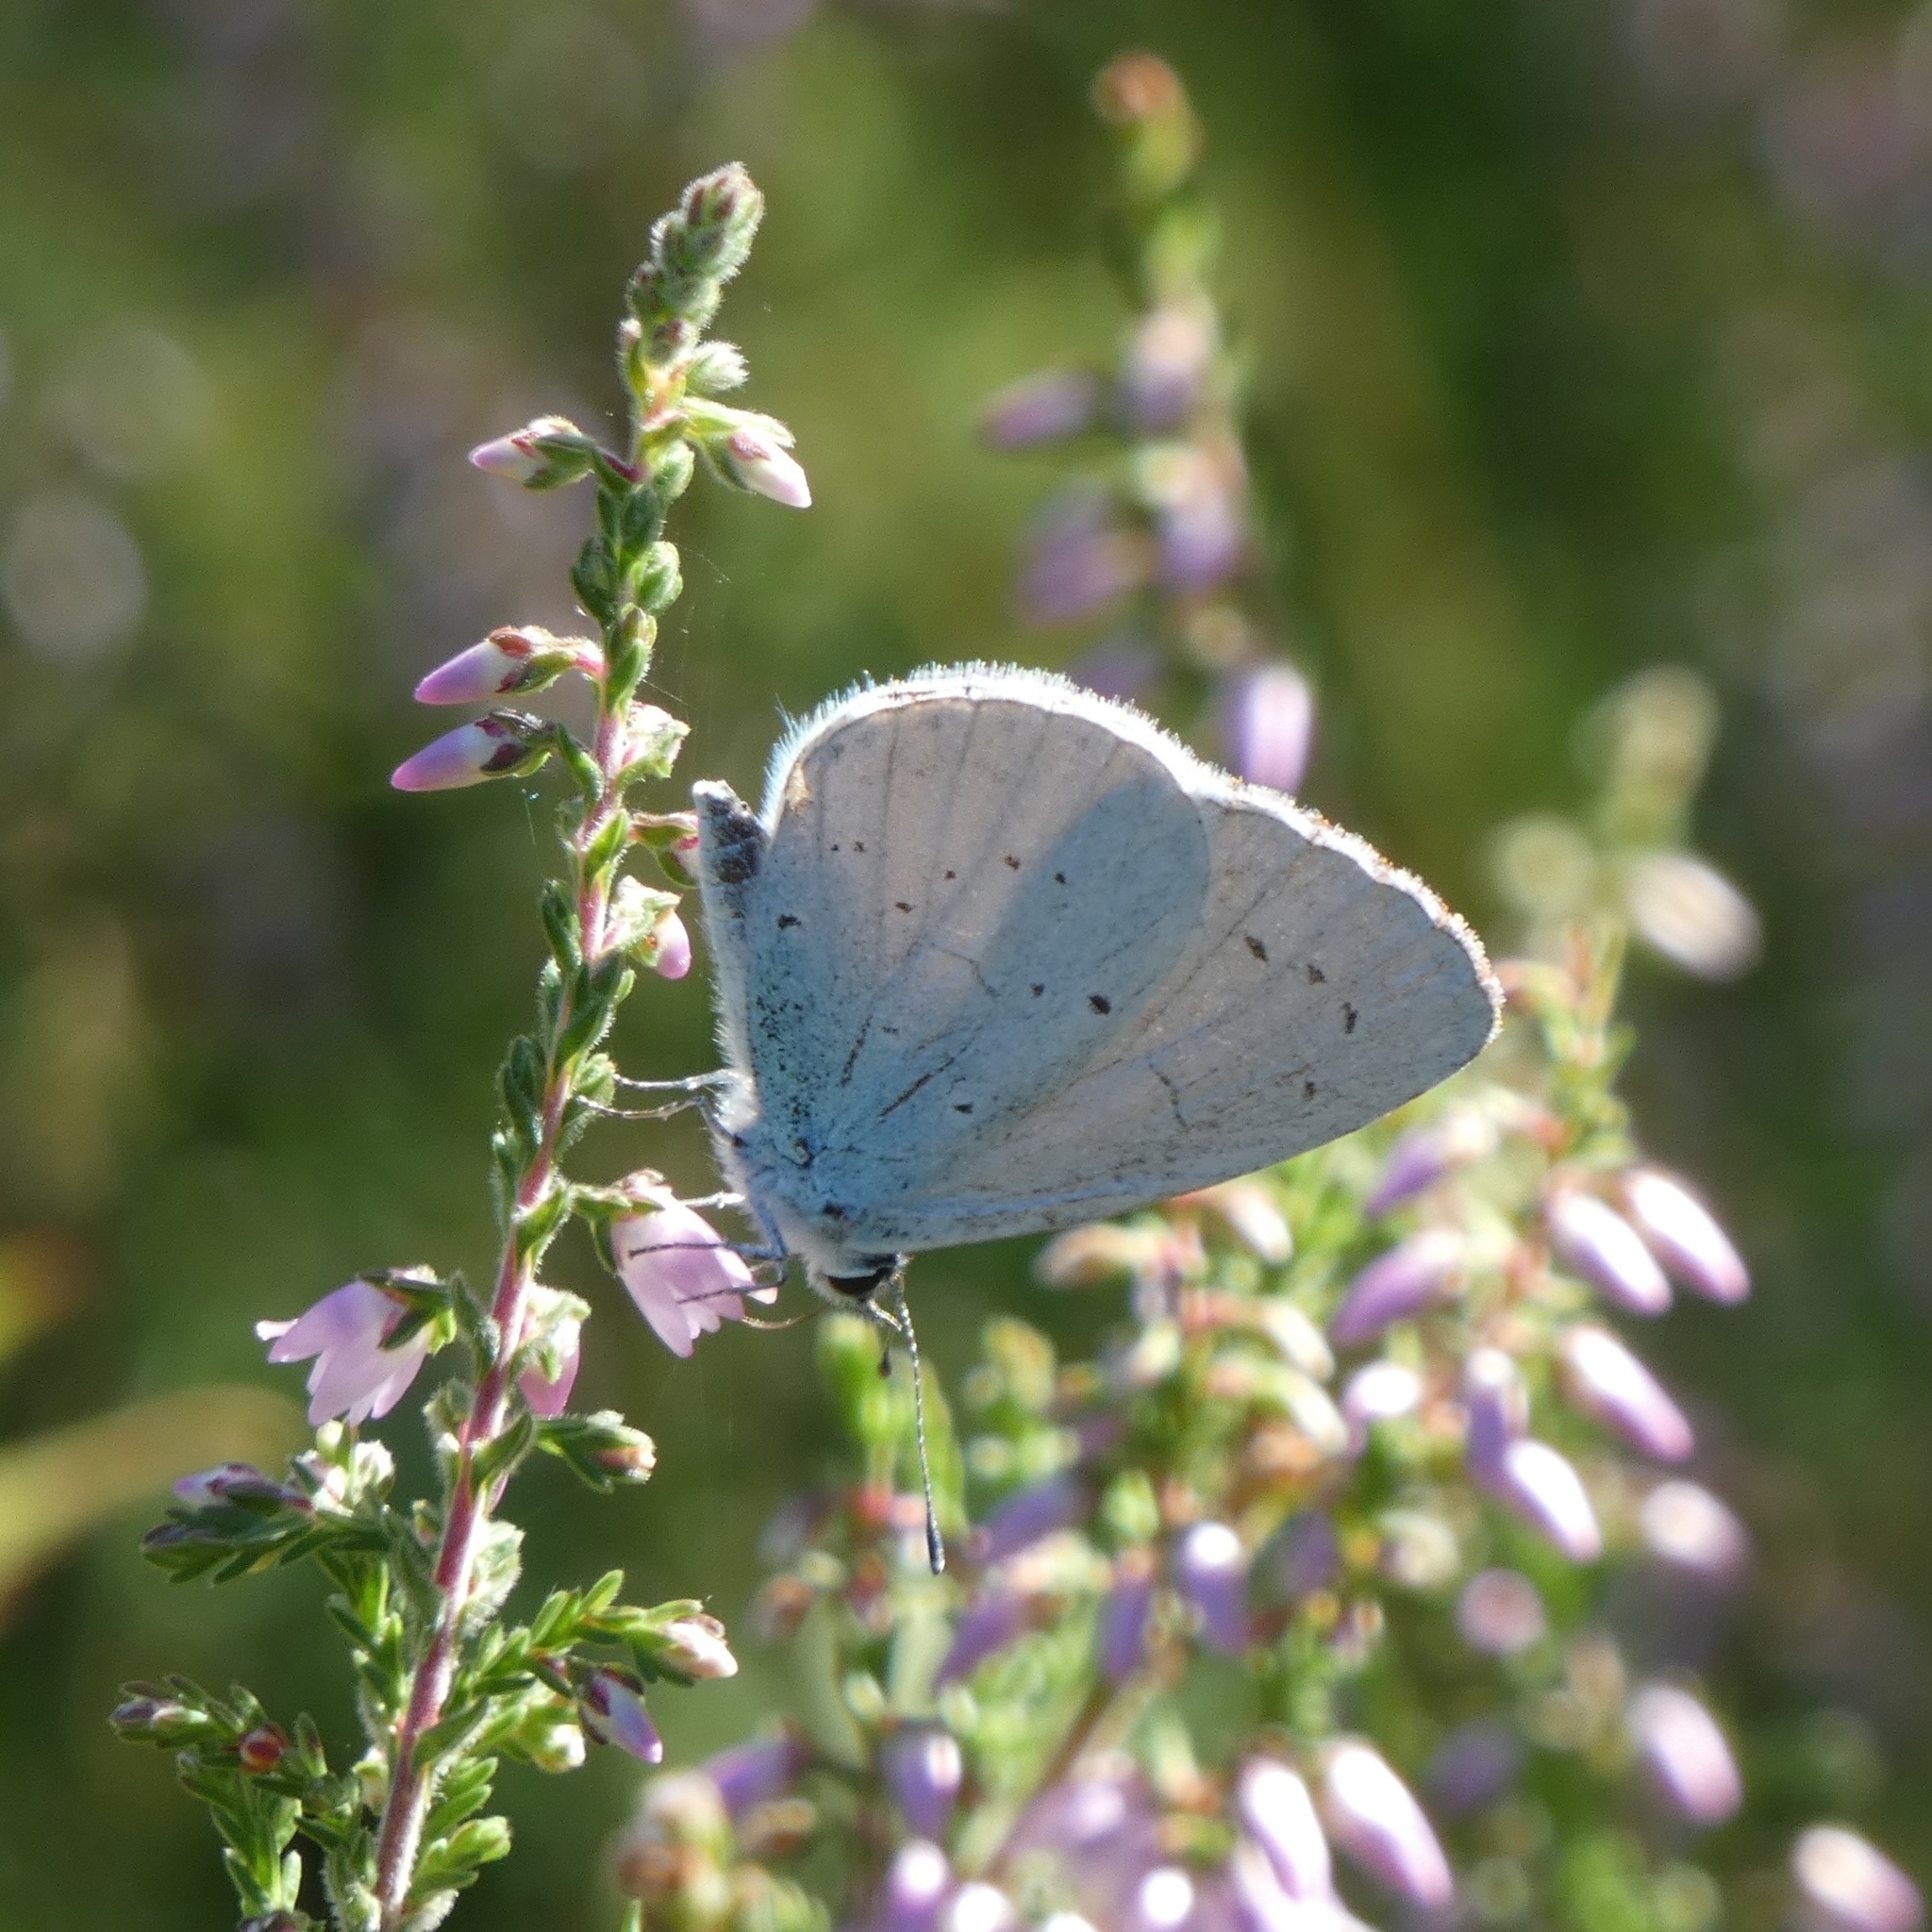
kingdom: Animalia
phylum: Arthropoda
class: Insecta
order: Lepidoptera
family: Lycaenidae
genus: Celastrina
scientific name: Celastrina argiolus
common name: Holly blue
